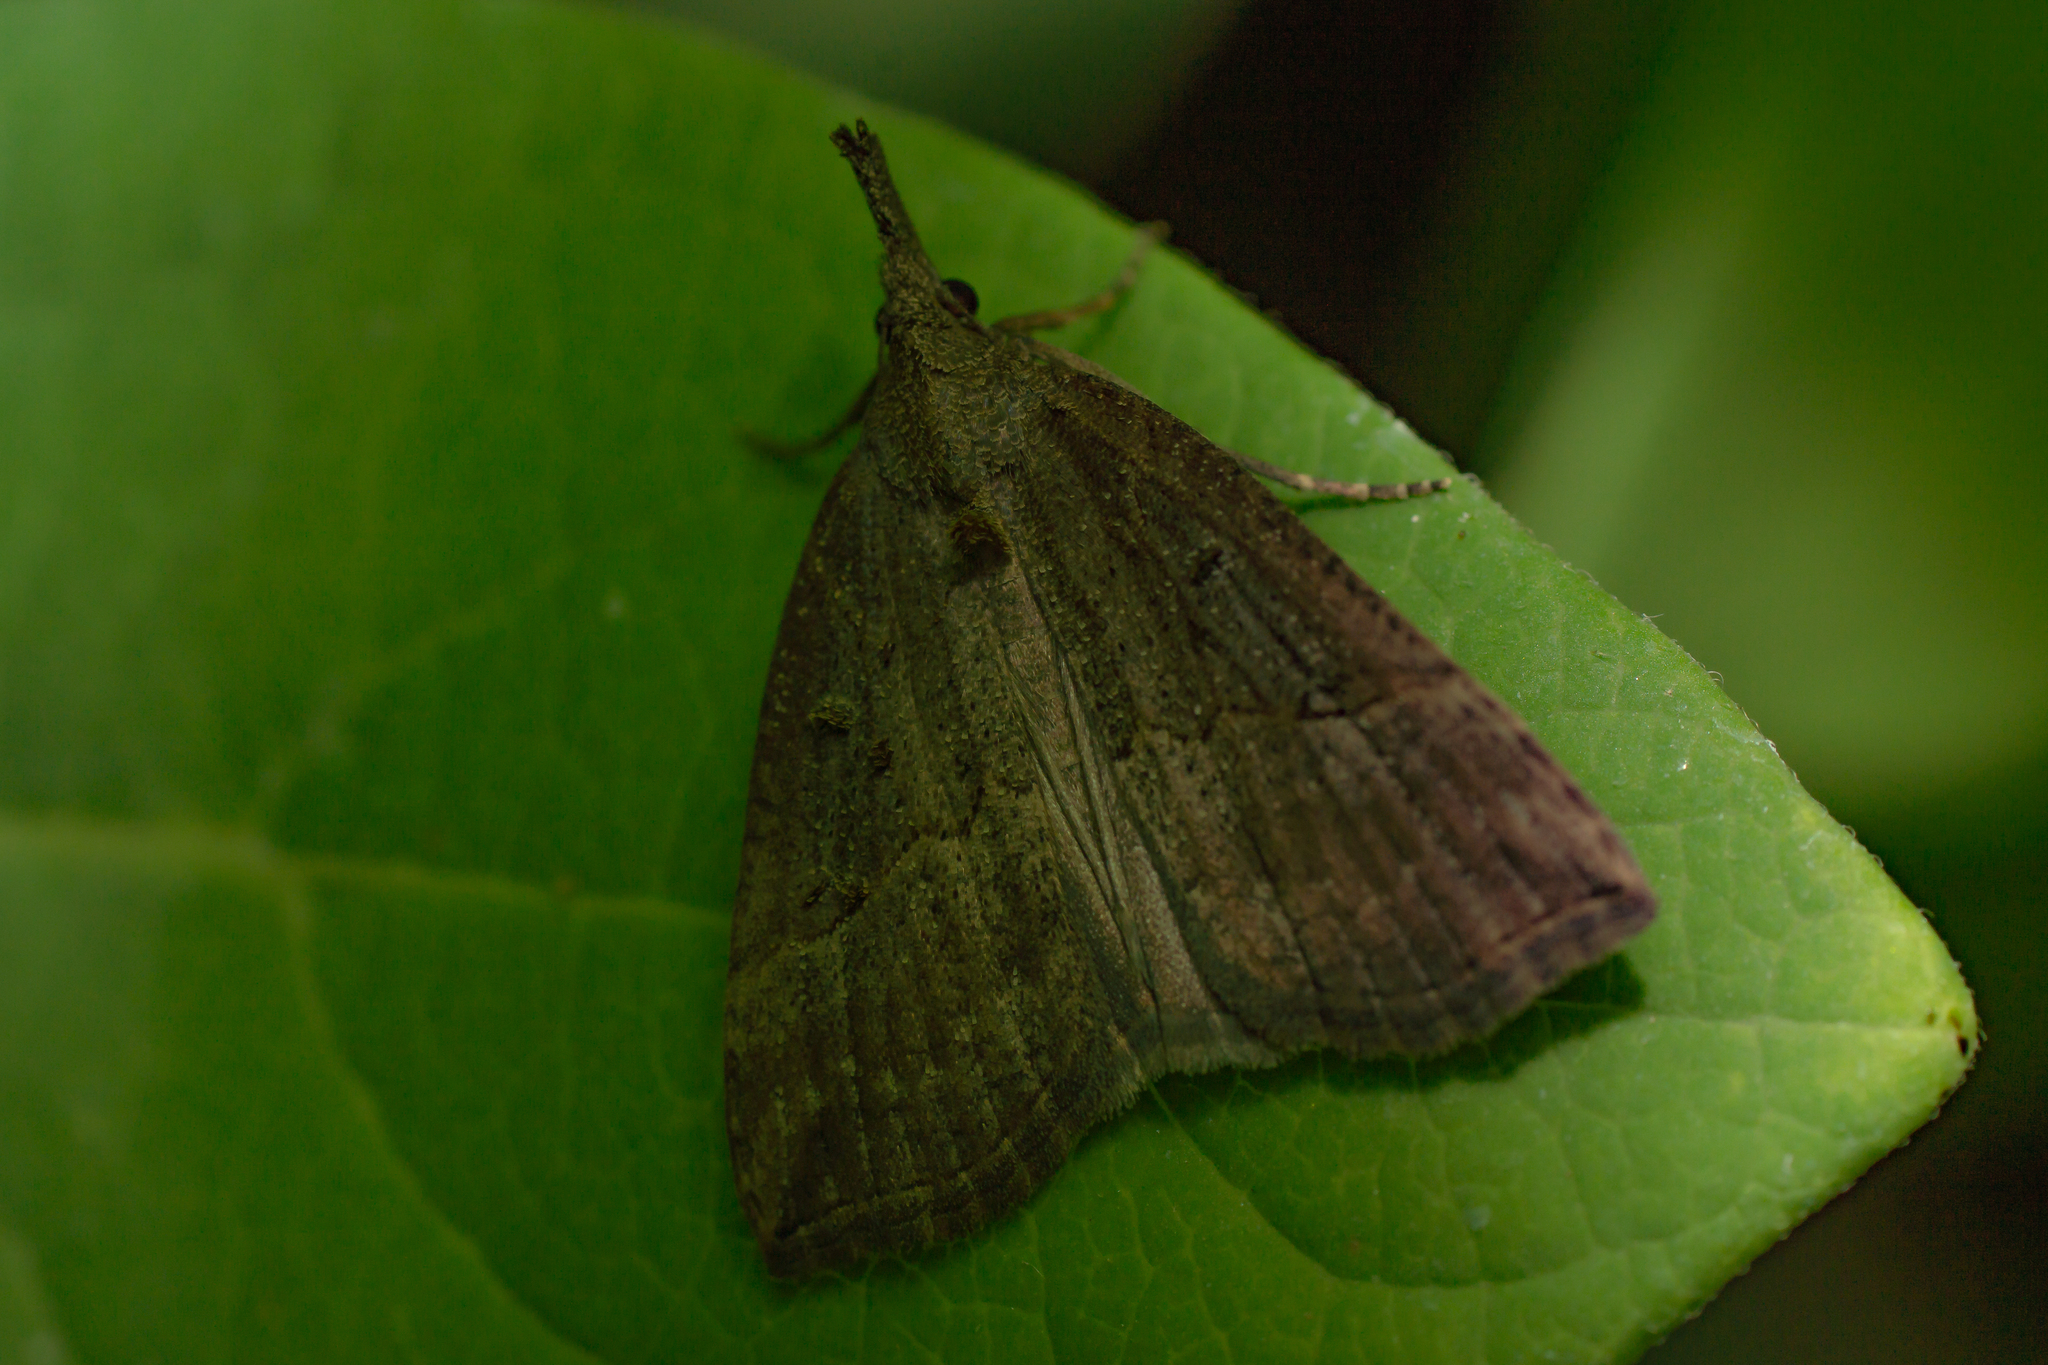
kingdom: Animalia
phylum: Arthropoda
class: Insecta
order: Lepidoptera
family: Erebidae
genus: Hypena
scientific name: Hypena rostralis
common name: Buttoned snout
